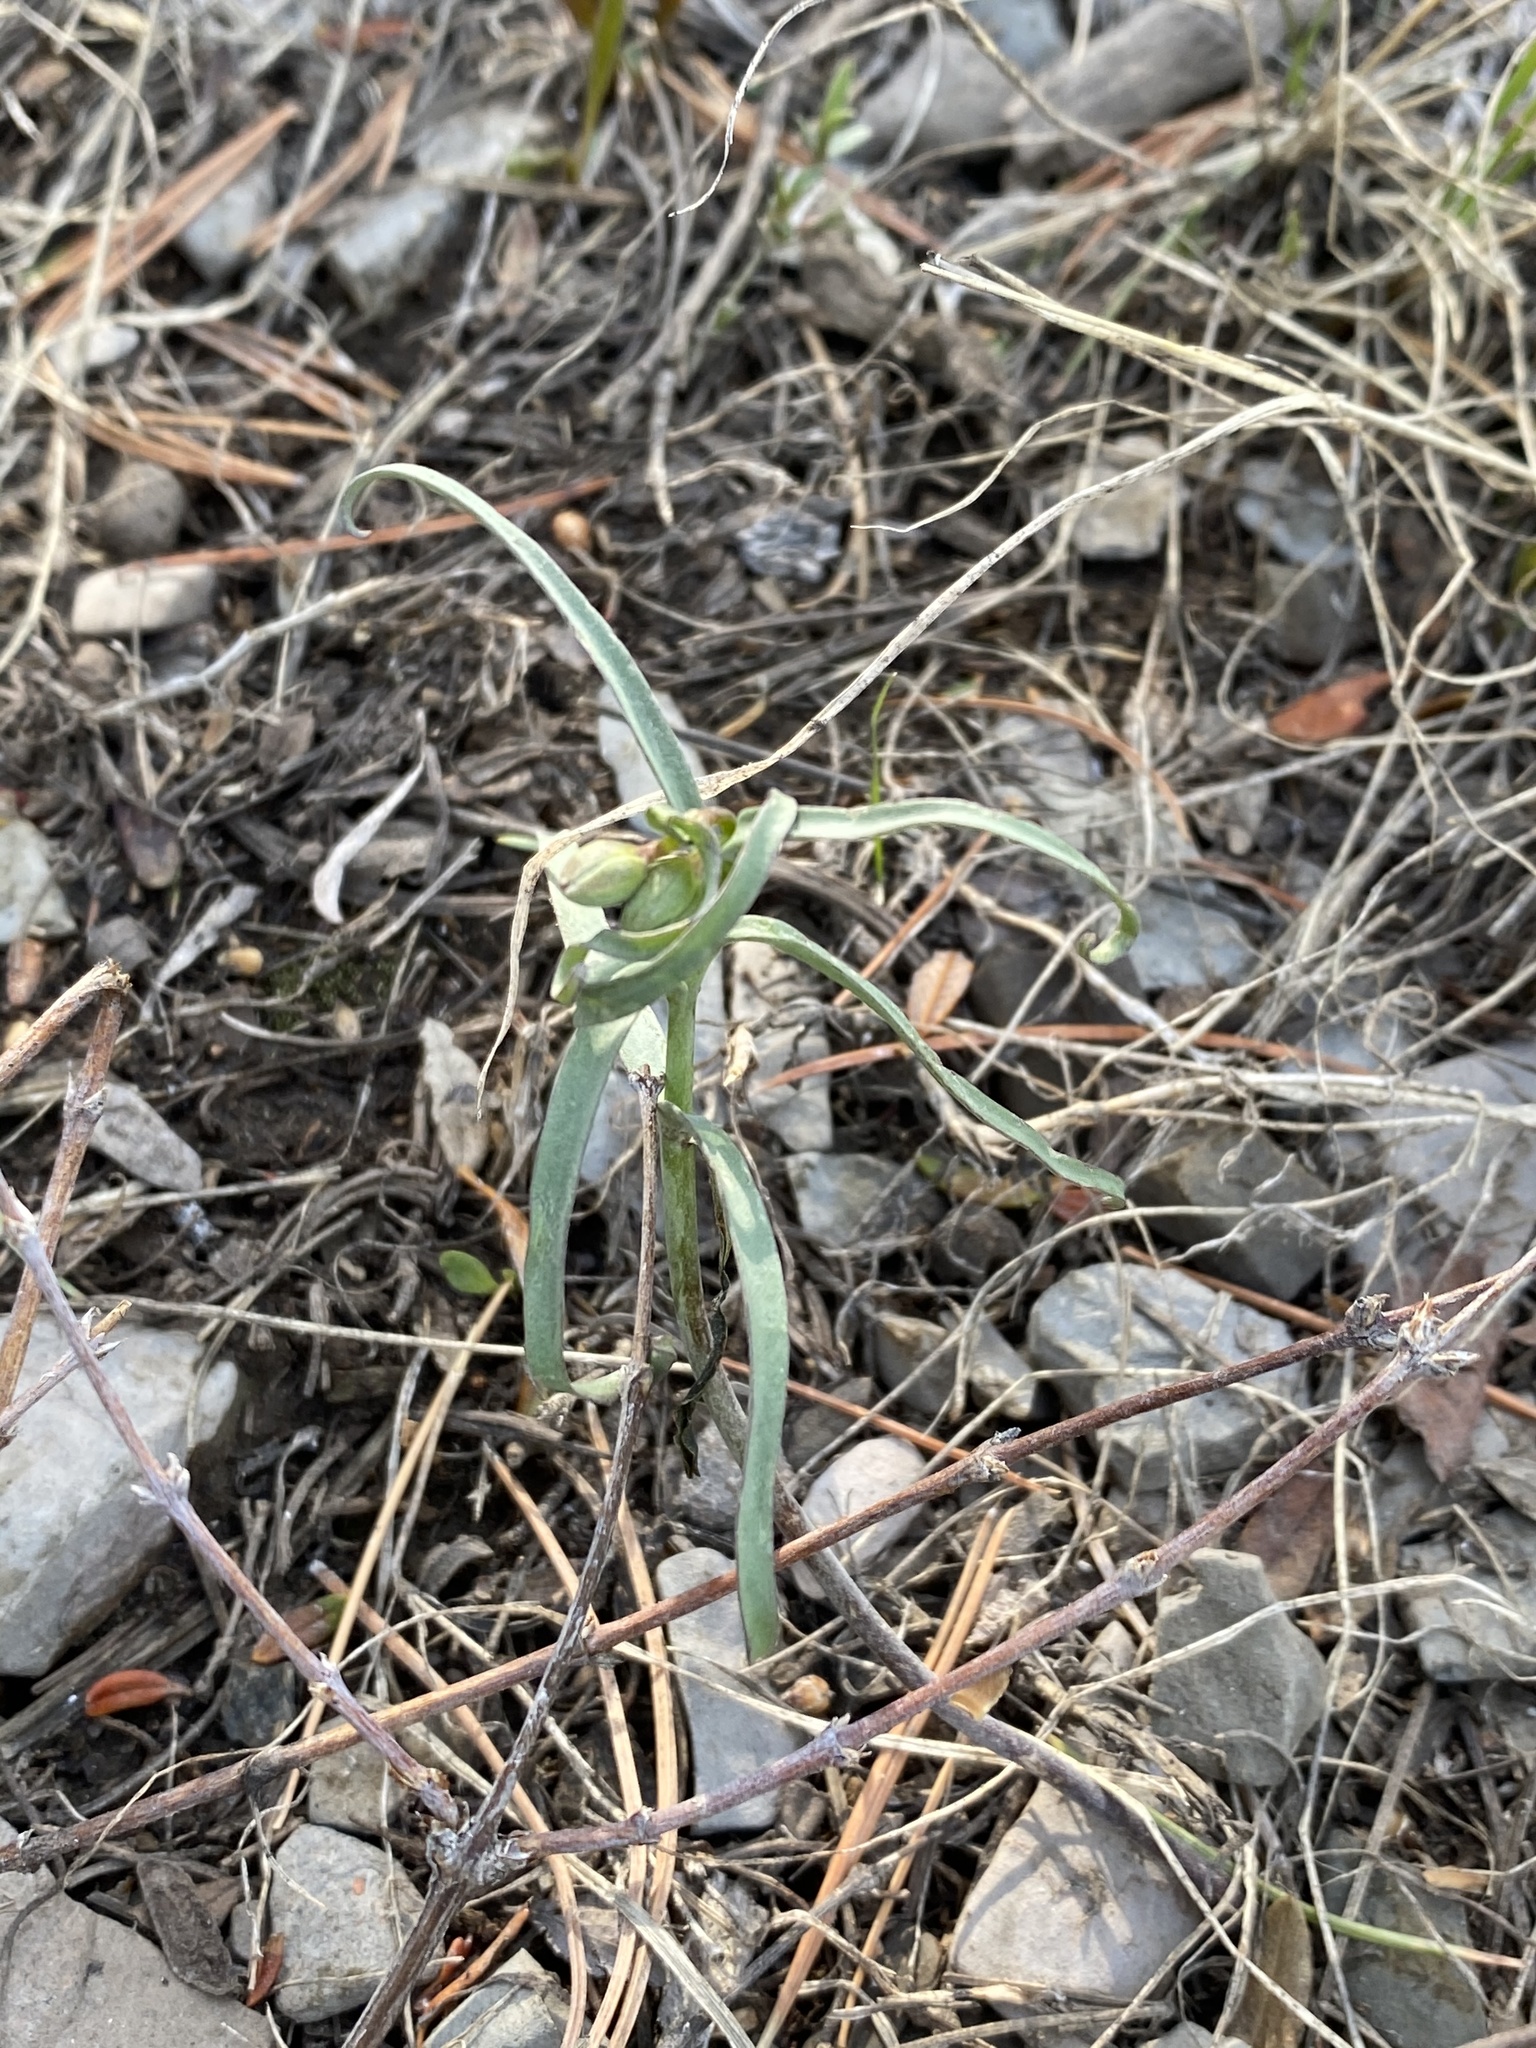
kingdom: Plantae
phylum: Tracheophyta
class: Liliopsida
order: Liliales
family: Liliaceae
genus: Fritillaria
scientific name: Fritillaria atropurpurea
